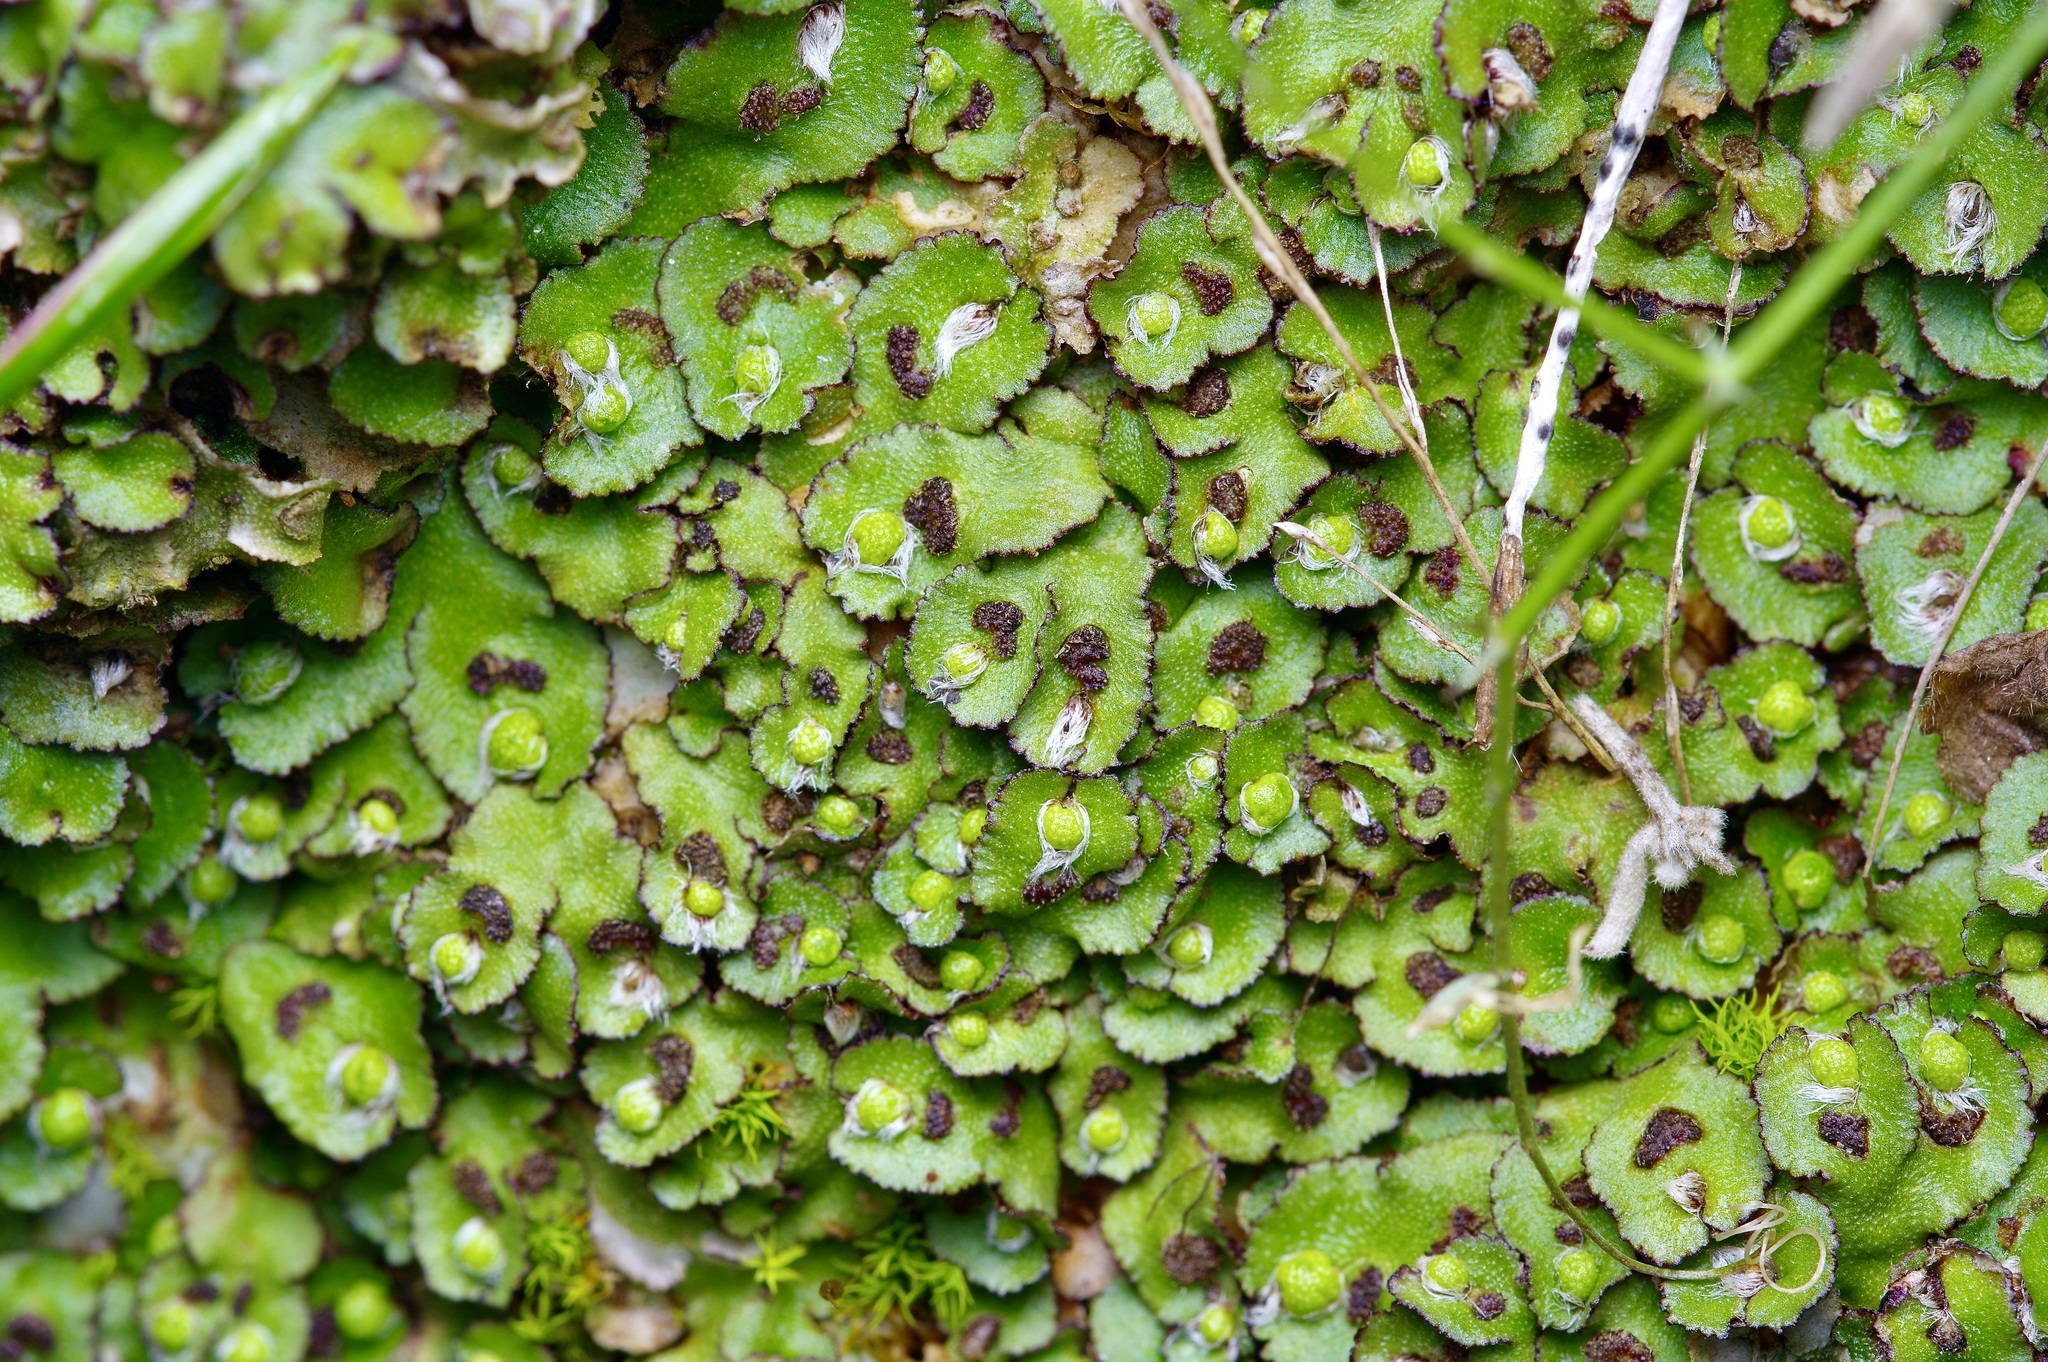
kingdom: Plantae
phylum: Marchantiophyta
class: Marchantiopsida
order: Marchantiales
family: Aytoniaceae
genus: Reboulia
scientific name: Reboulia hemisphaerica
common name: Purple-margined liverwort
